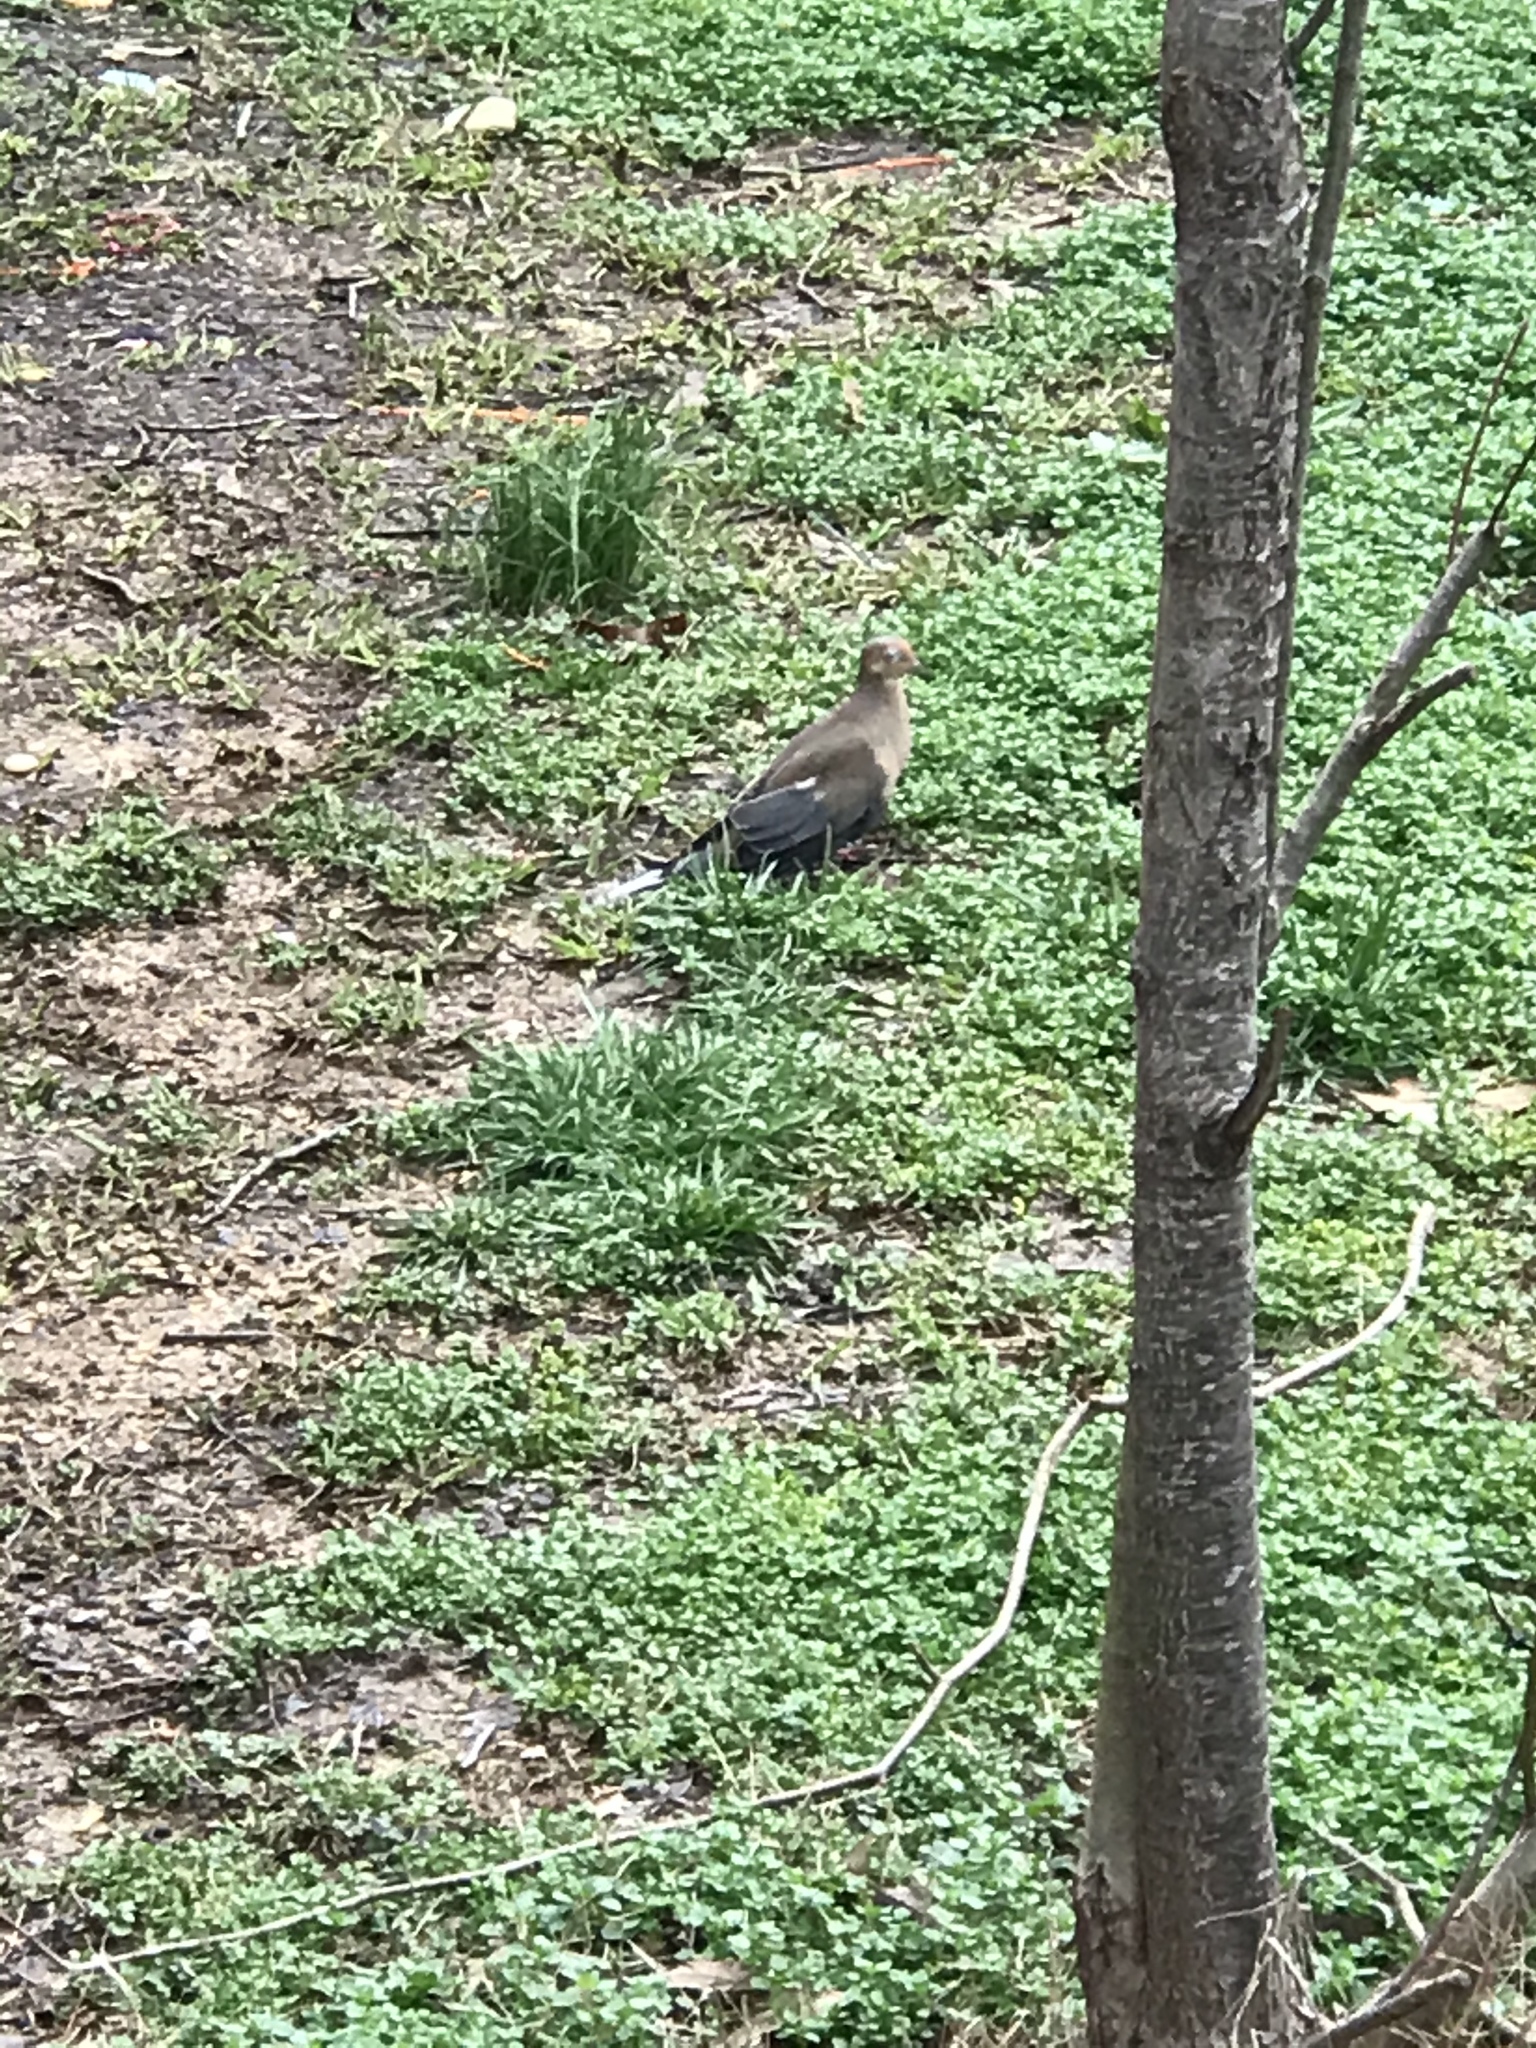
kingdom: Animalia
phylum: Chordata
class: Aves
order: Columbiformes
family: Columbidae
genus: Zenaida
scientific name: Zenaida macroura
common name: Mourning dove
